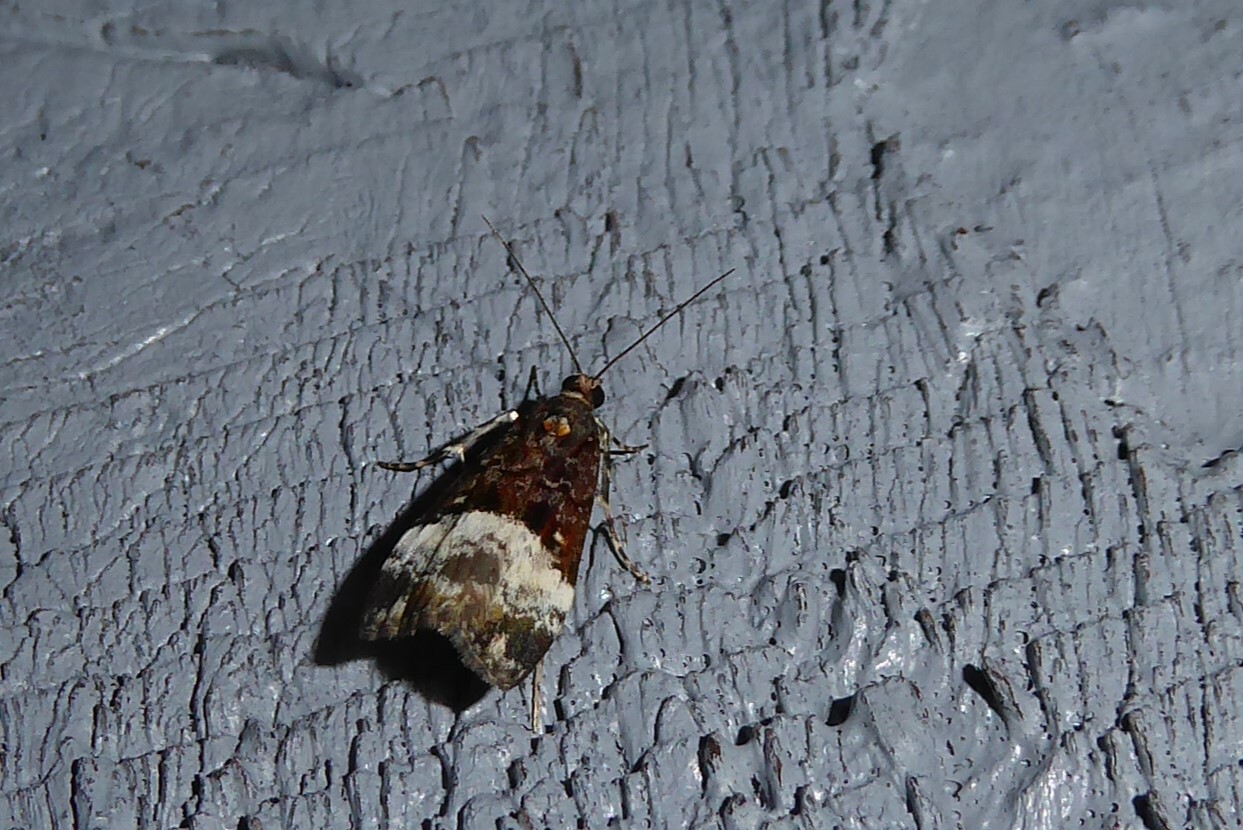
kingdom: Animalia
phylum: Arthropoda
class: Insecta
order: Lepidoptera
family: Crambidae
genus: Scoparia
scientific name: Scoparia minusculalis
